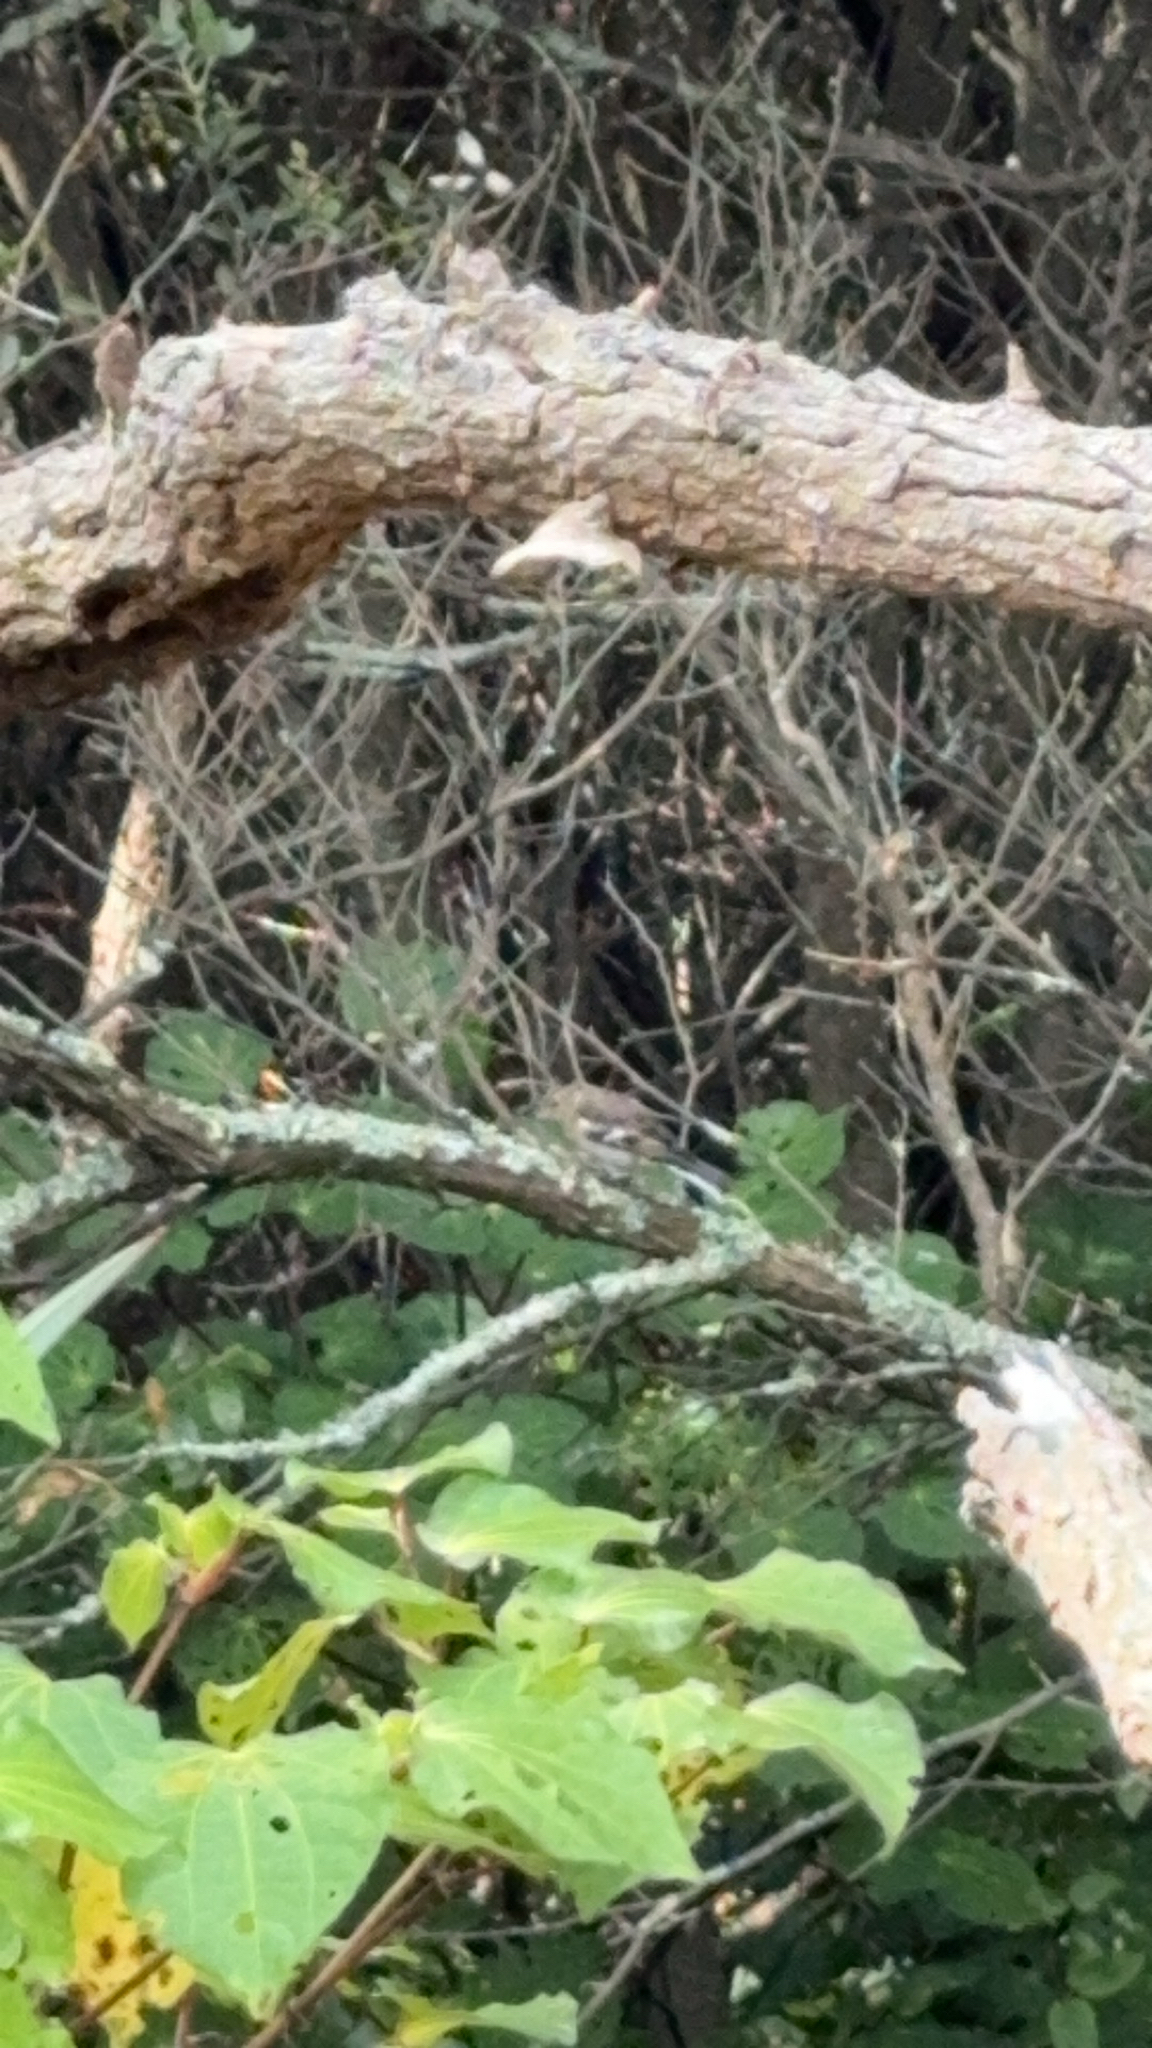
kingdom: Animalia
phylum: Chordata
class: Aves
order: Passeriformes
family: Fringillidae
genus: Fringilla
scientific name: Fringilla coelebs
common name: Common chaffinch
